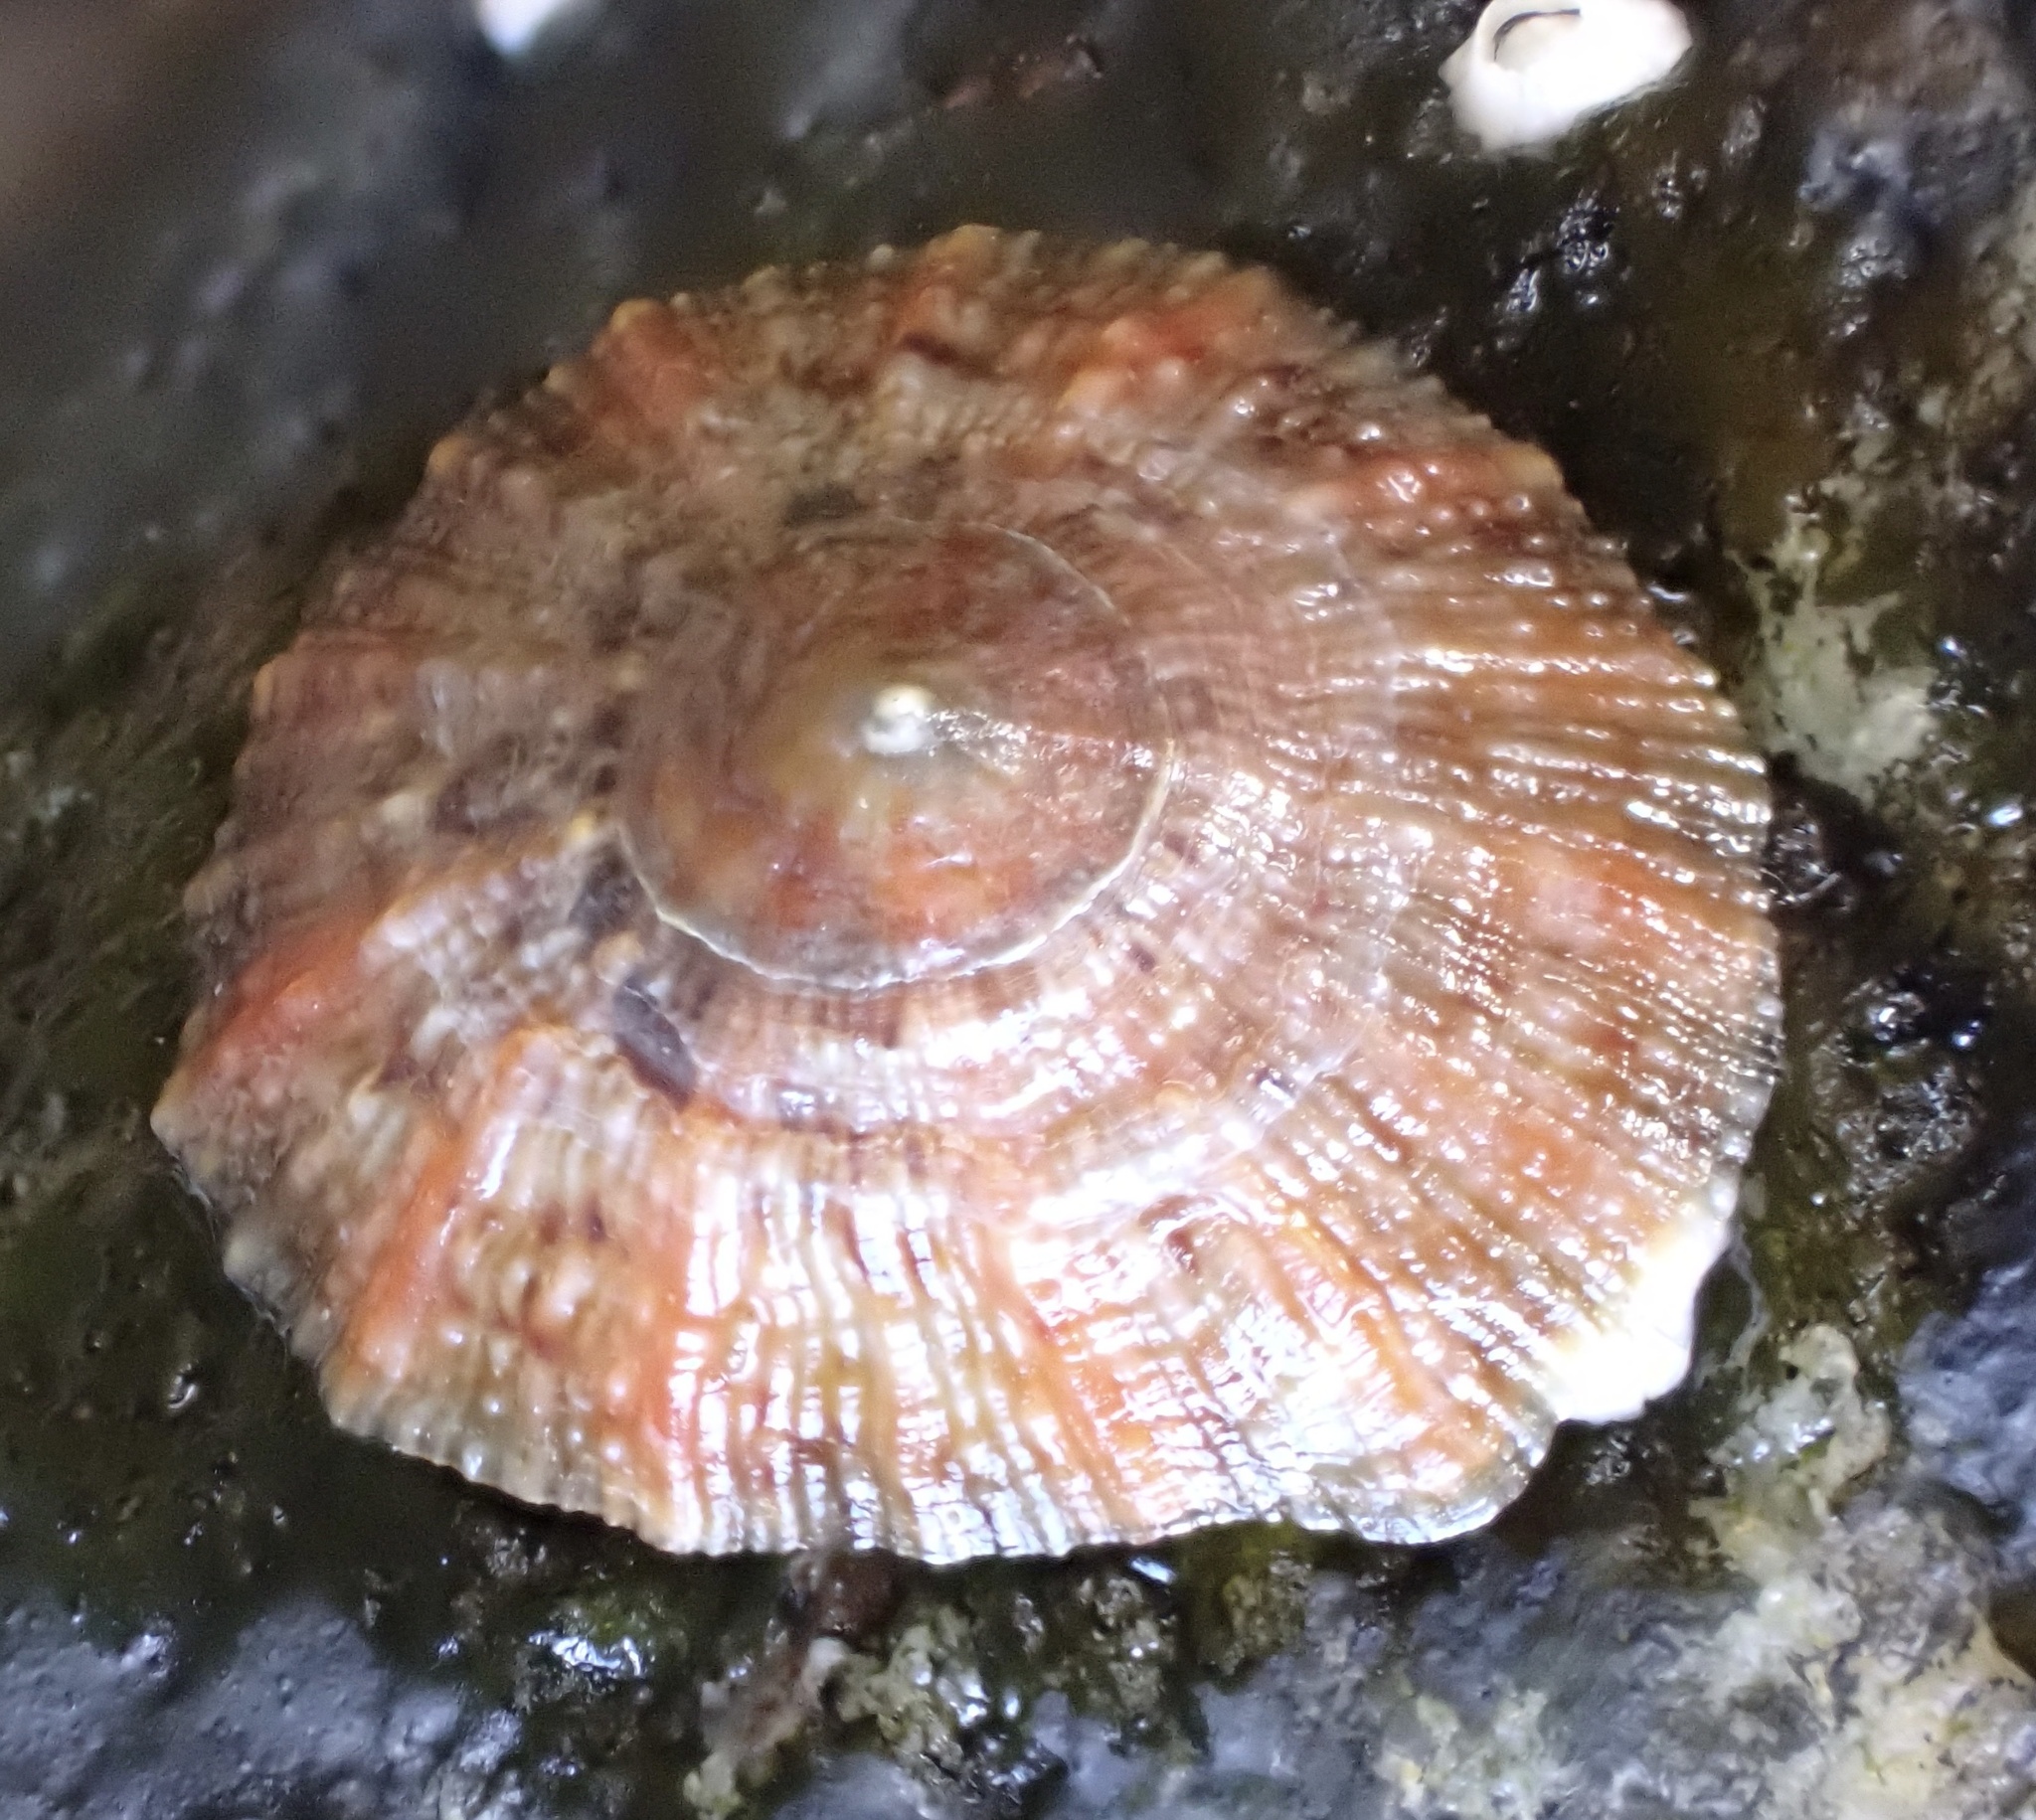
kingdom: Animalia
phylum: Mollusca
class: Gastropoda
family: Patellidae
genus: Patella
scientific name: Patella
